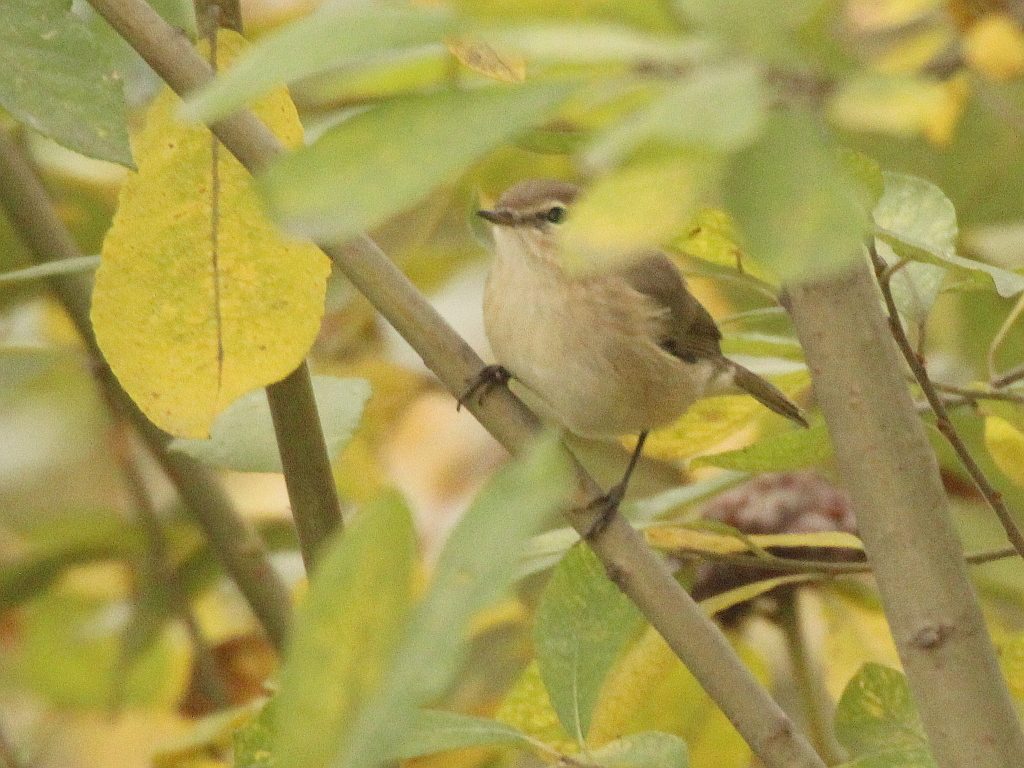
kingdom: Animalia
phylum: Chordata
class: Aves
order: Passeriformes
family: Phylloscopidae
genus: Phylloscopus
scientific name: Phylloscopus collybita
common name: Common chiffchaff
